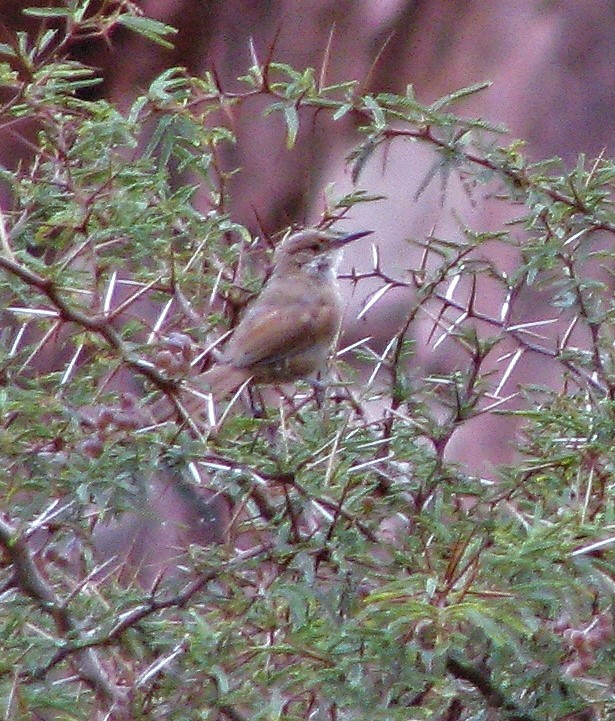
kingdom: Animalia
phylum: Chordata
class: Aves
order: Passeriformes
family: Furnariidae
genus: Upucerthia
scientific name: Upucerthia certhioides
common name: Chaco earthcreeper
